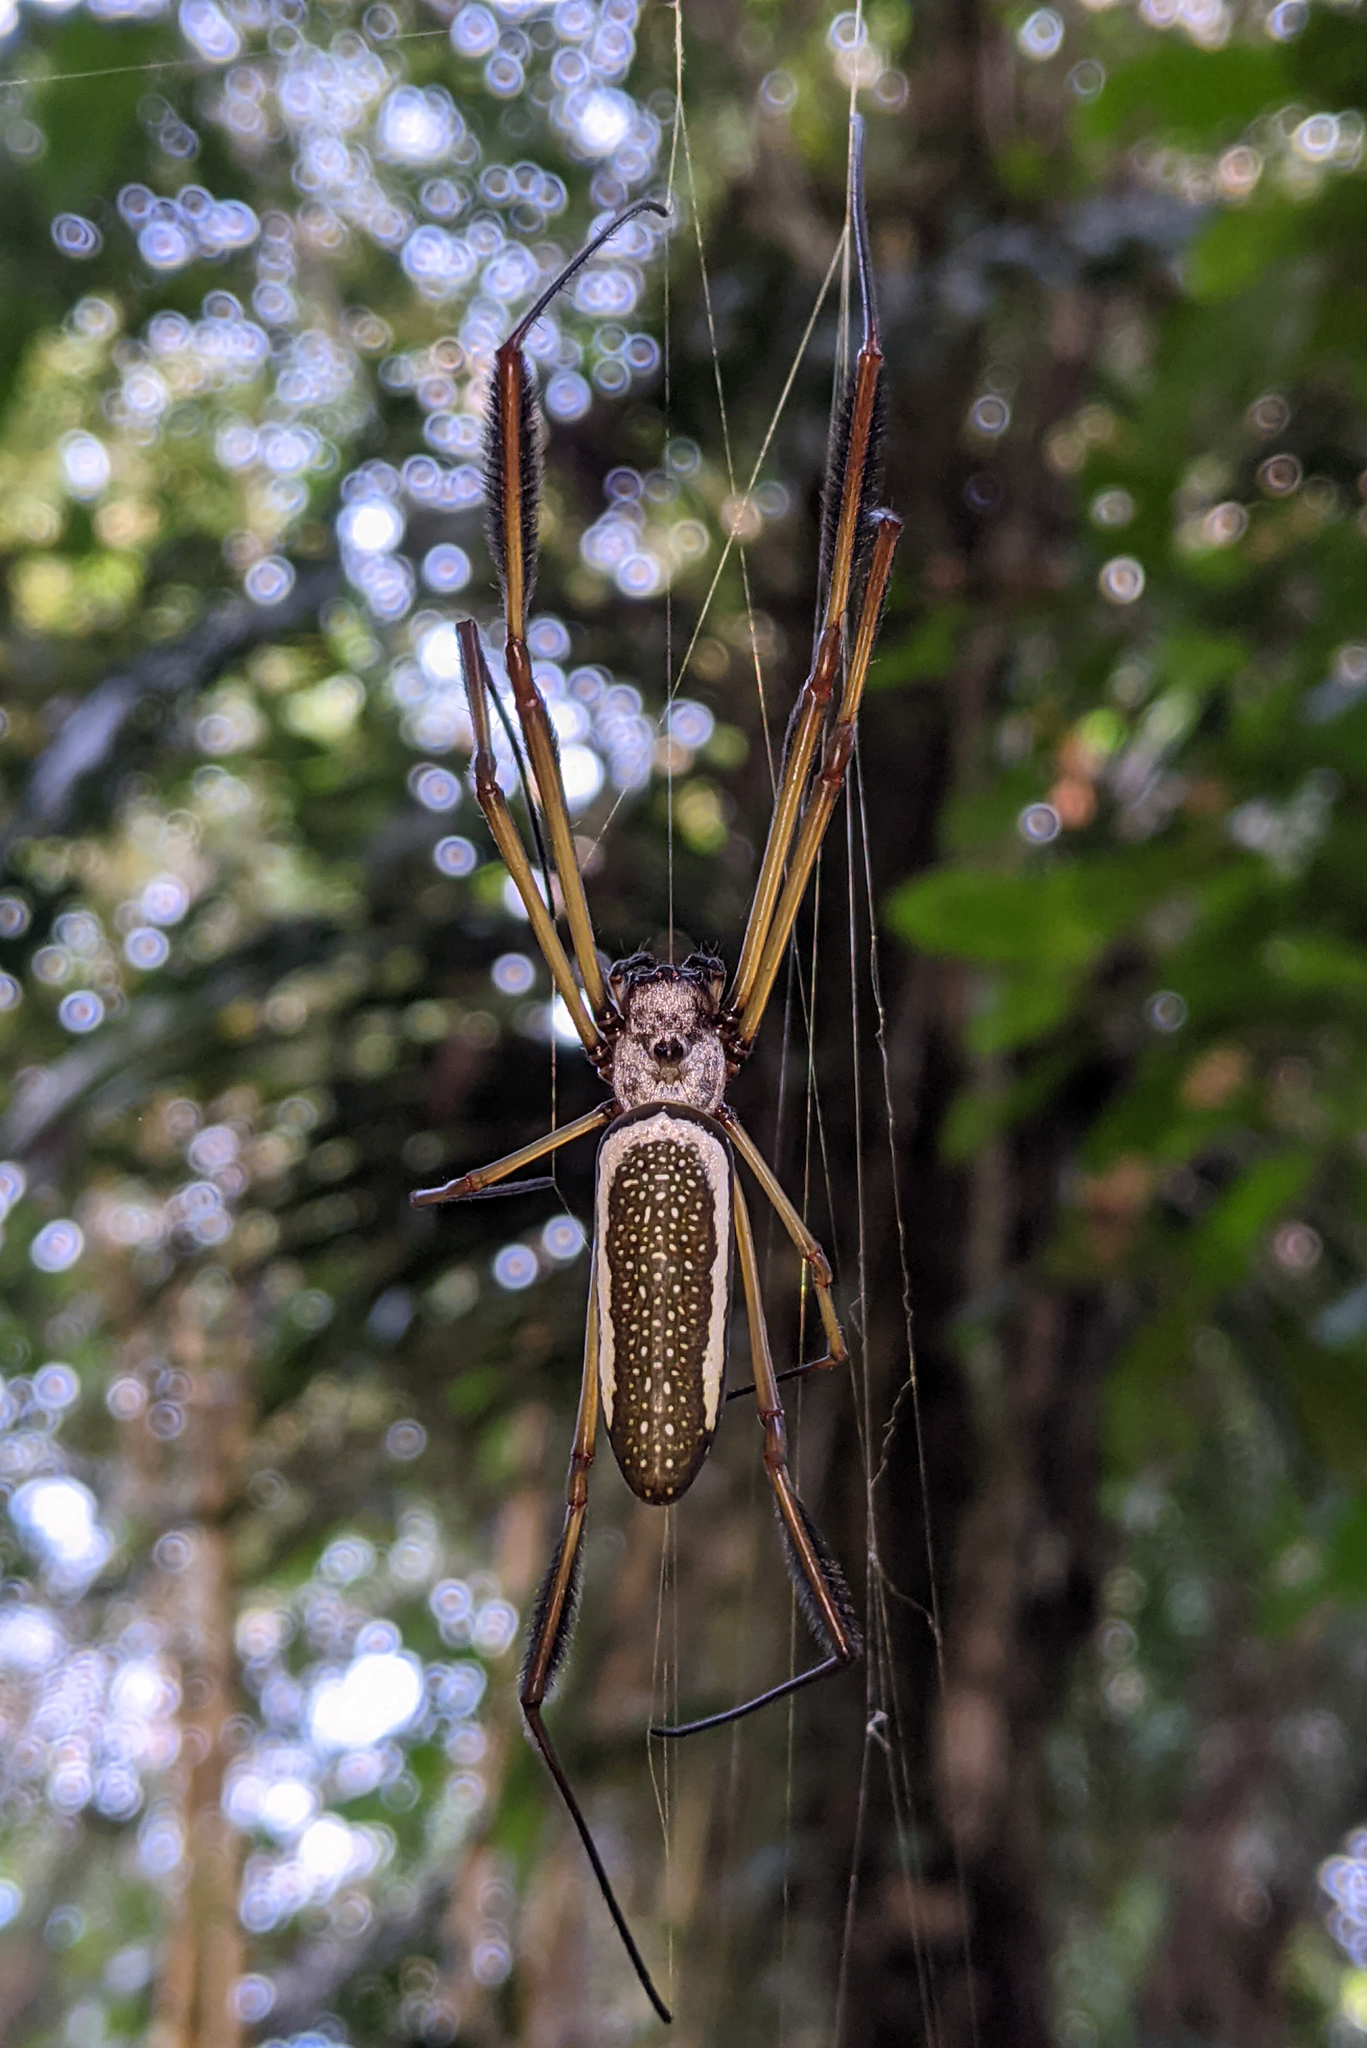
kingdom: Animalia
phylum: Arthropoda
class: Arachnida
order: Araneae
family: Araneidae
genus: Trichonephila
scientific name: Trichonephila clavipes
